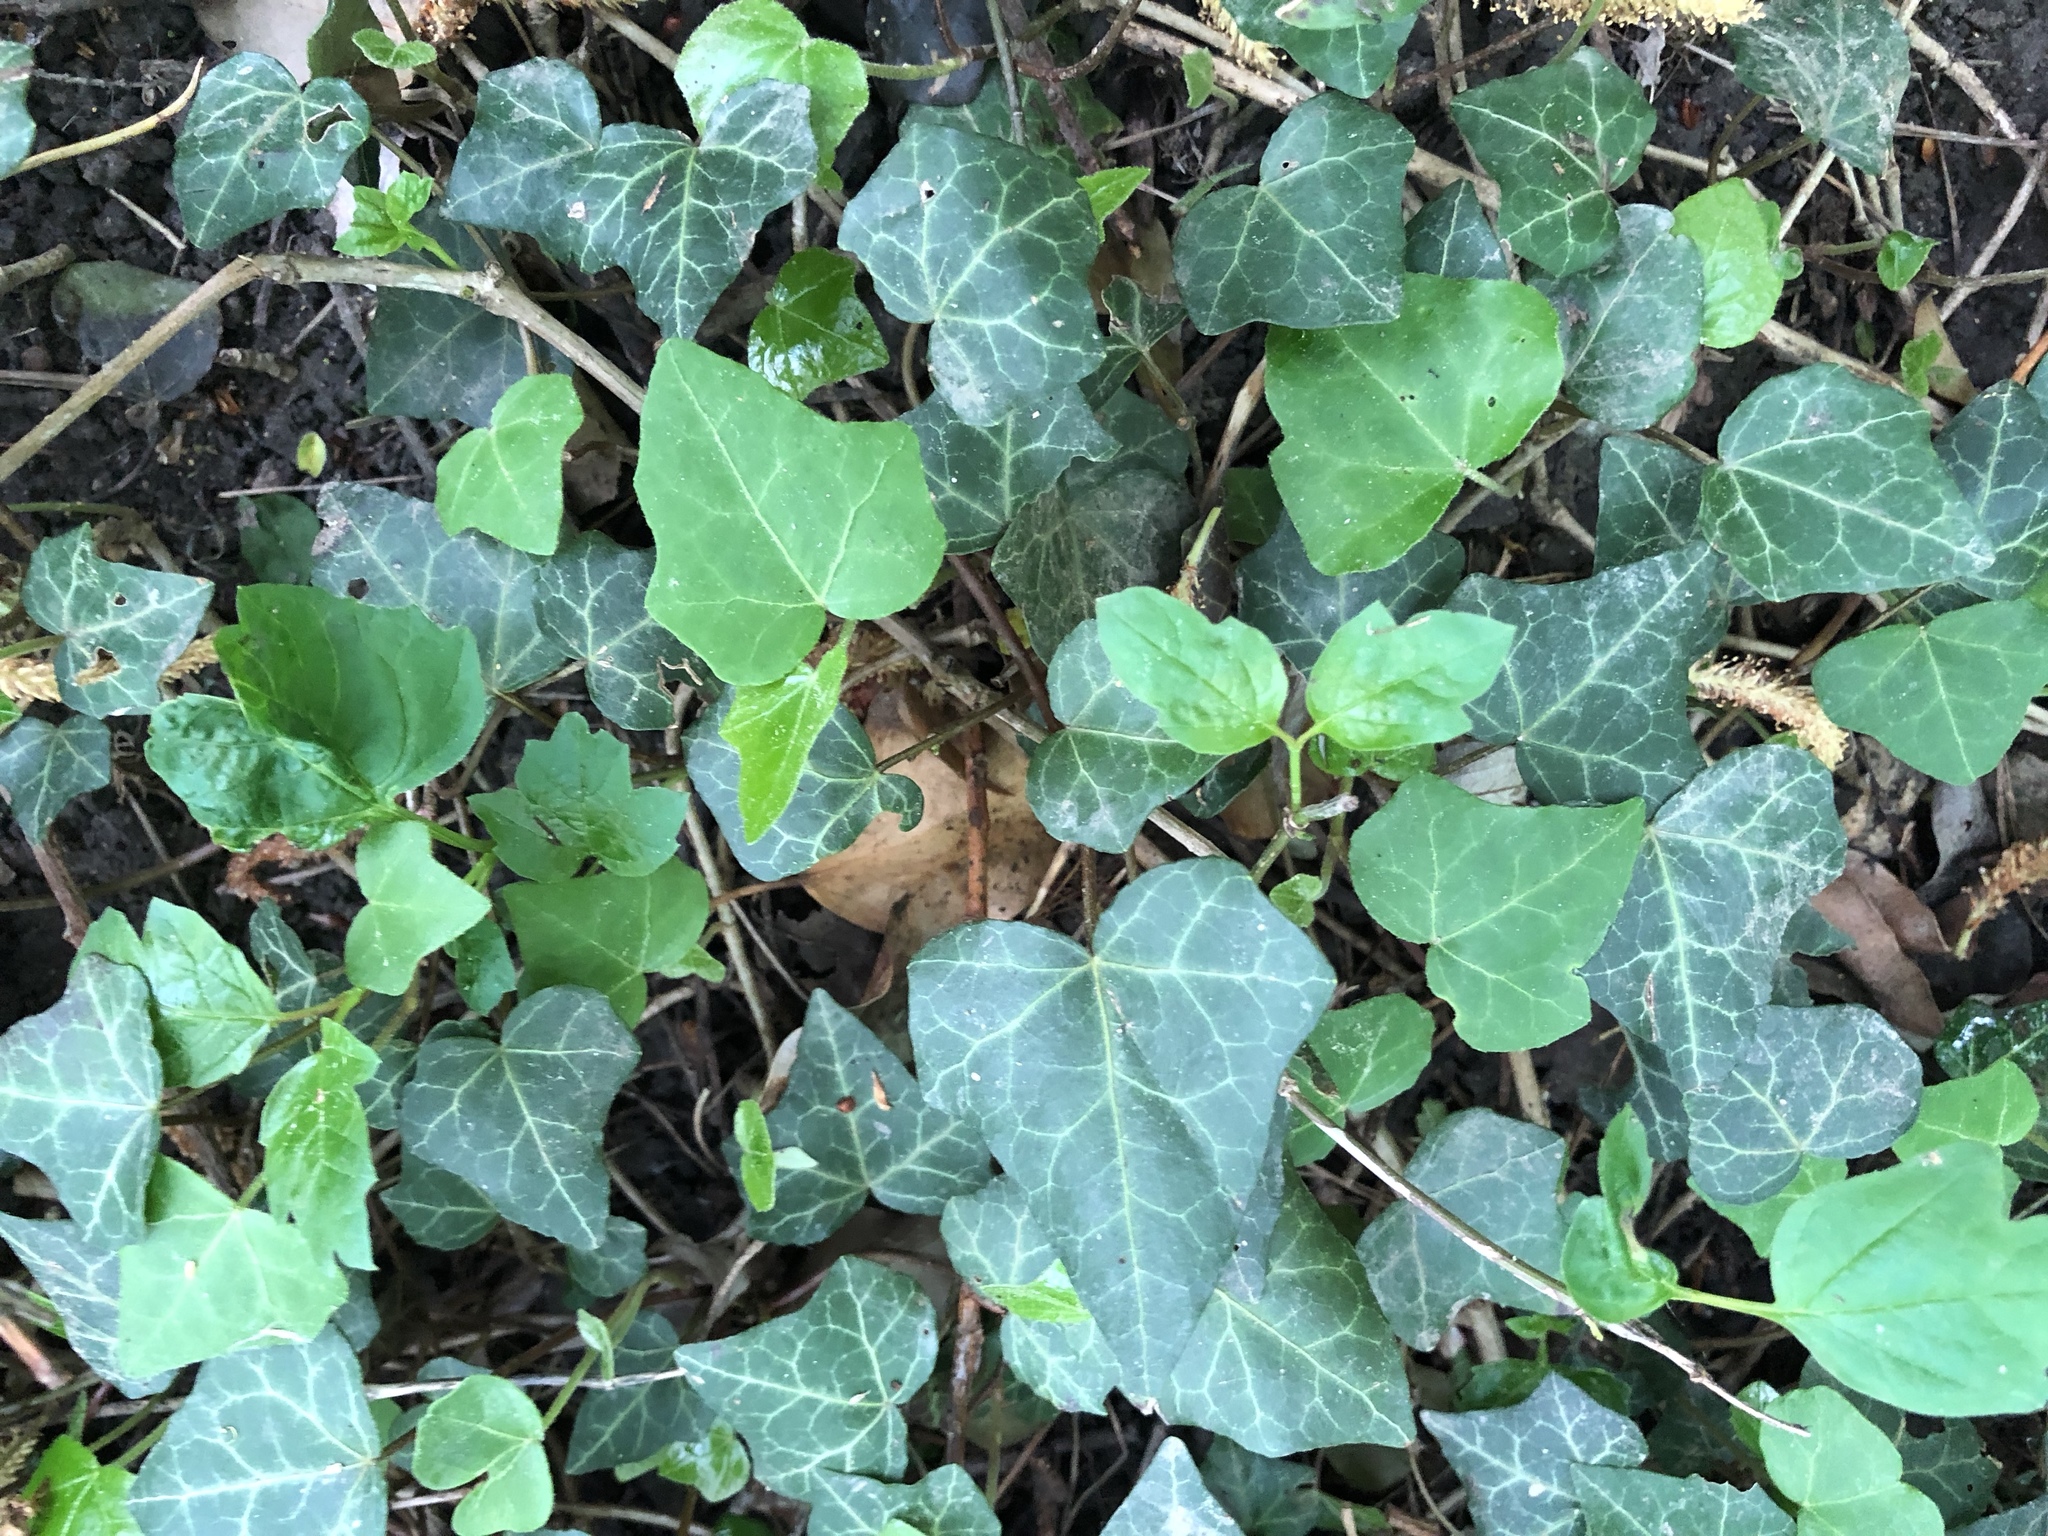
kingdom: Plantae
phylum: Tracheophyta
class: Magnoliopsida
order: Apiales
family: Araliaceae
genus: Hedera
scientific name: Hedera helix
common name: Ivy
